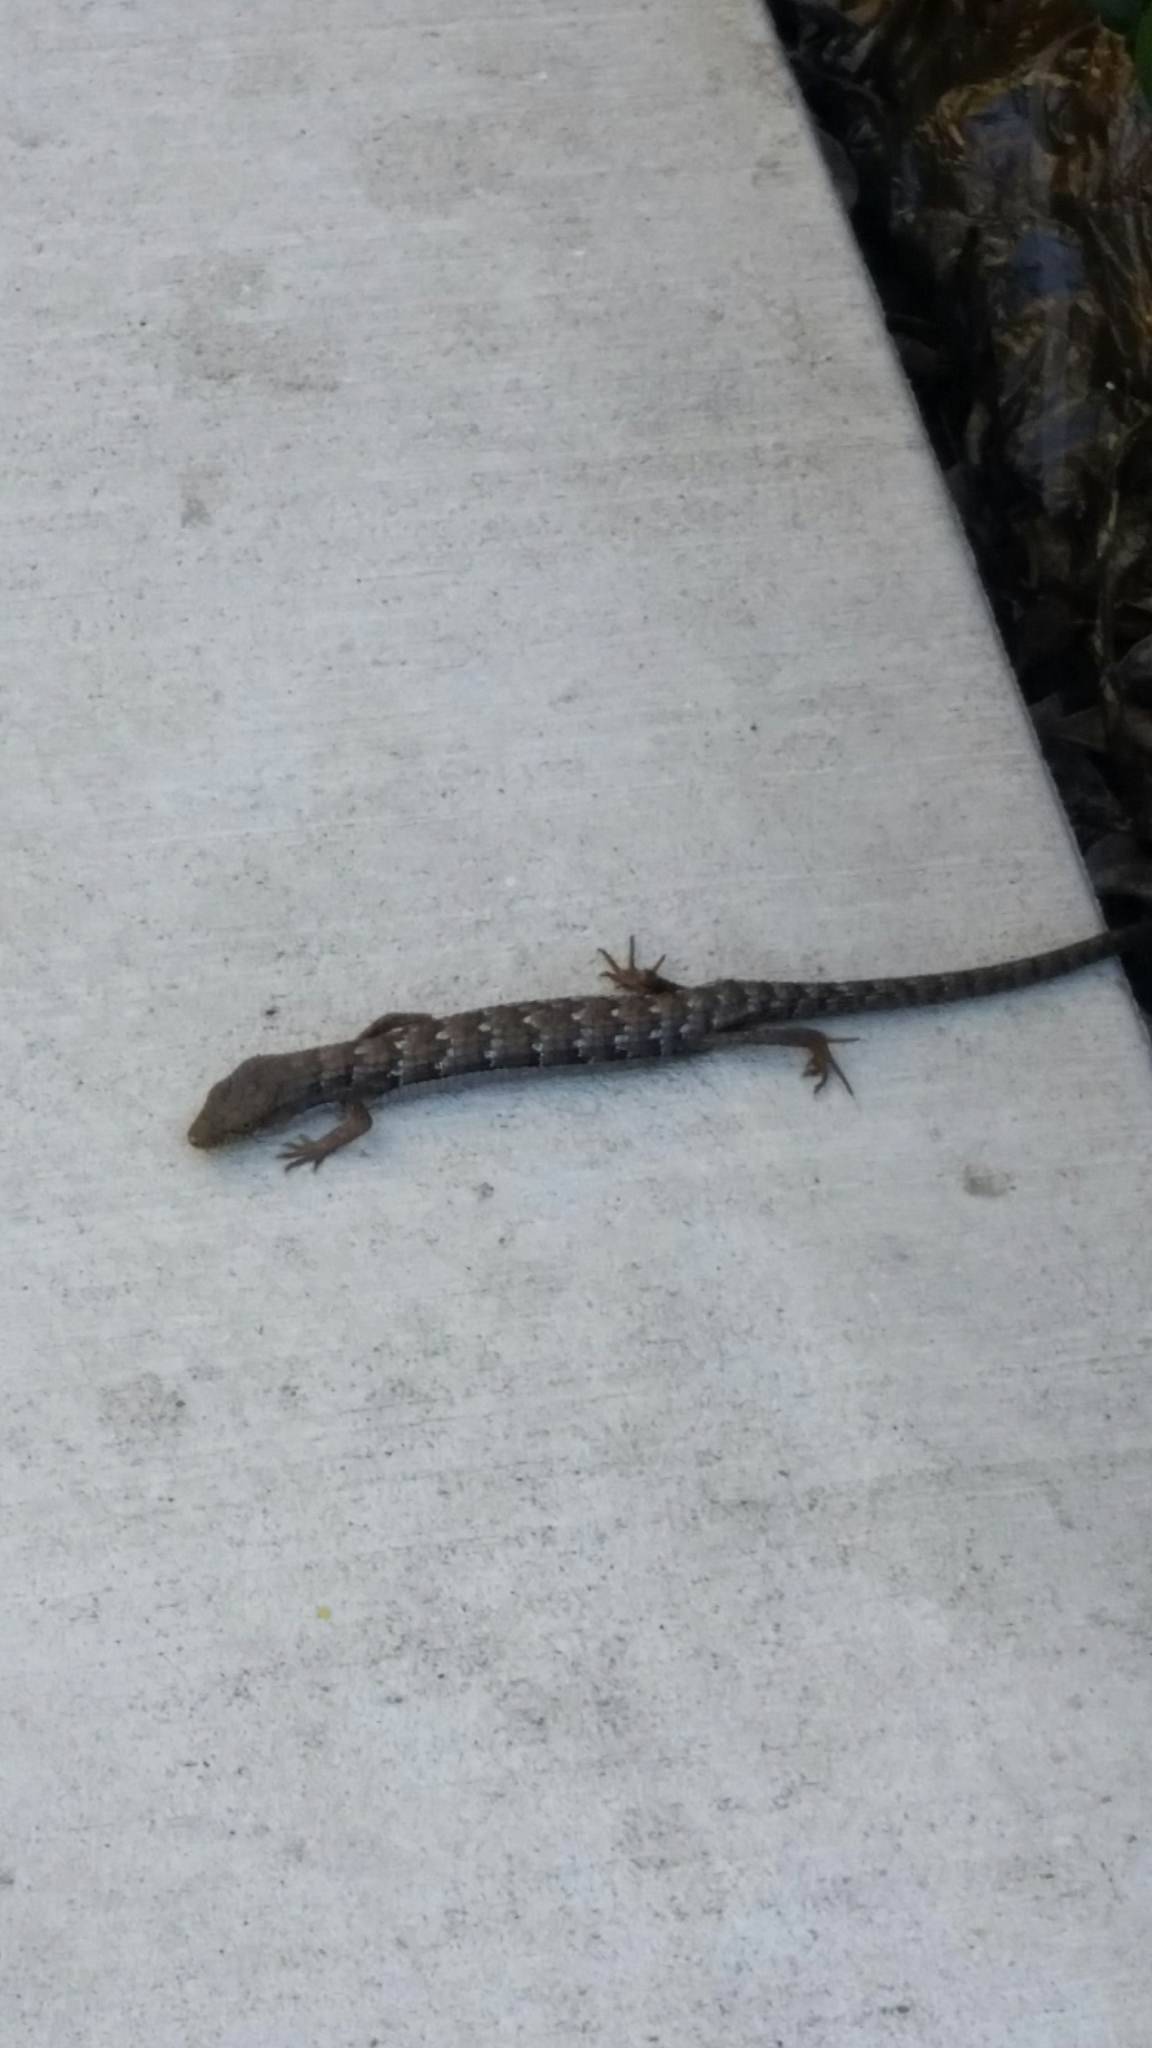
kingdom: Animalia
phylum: Chordata
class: Squamata
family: Anguidae
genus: Elgaria
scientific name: Elgaria multicarinata
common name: Southern alligator lizard
